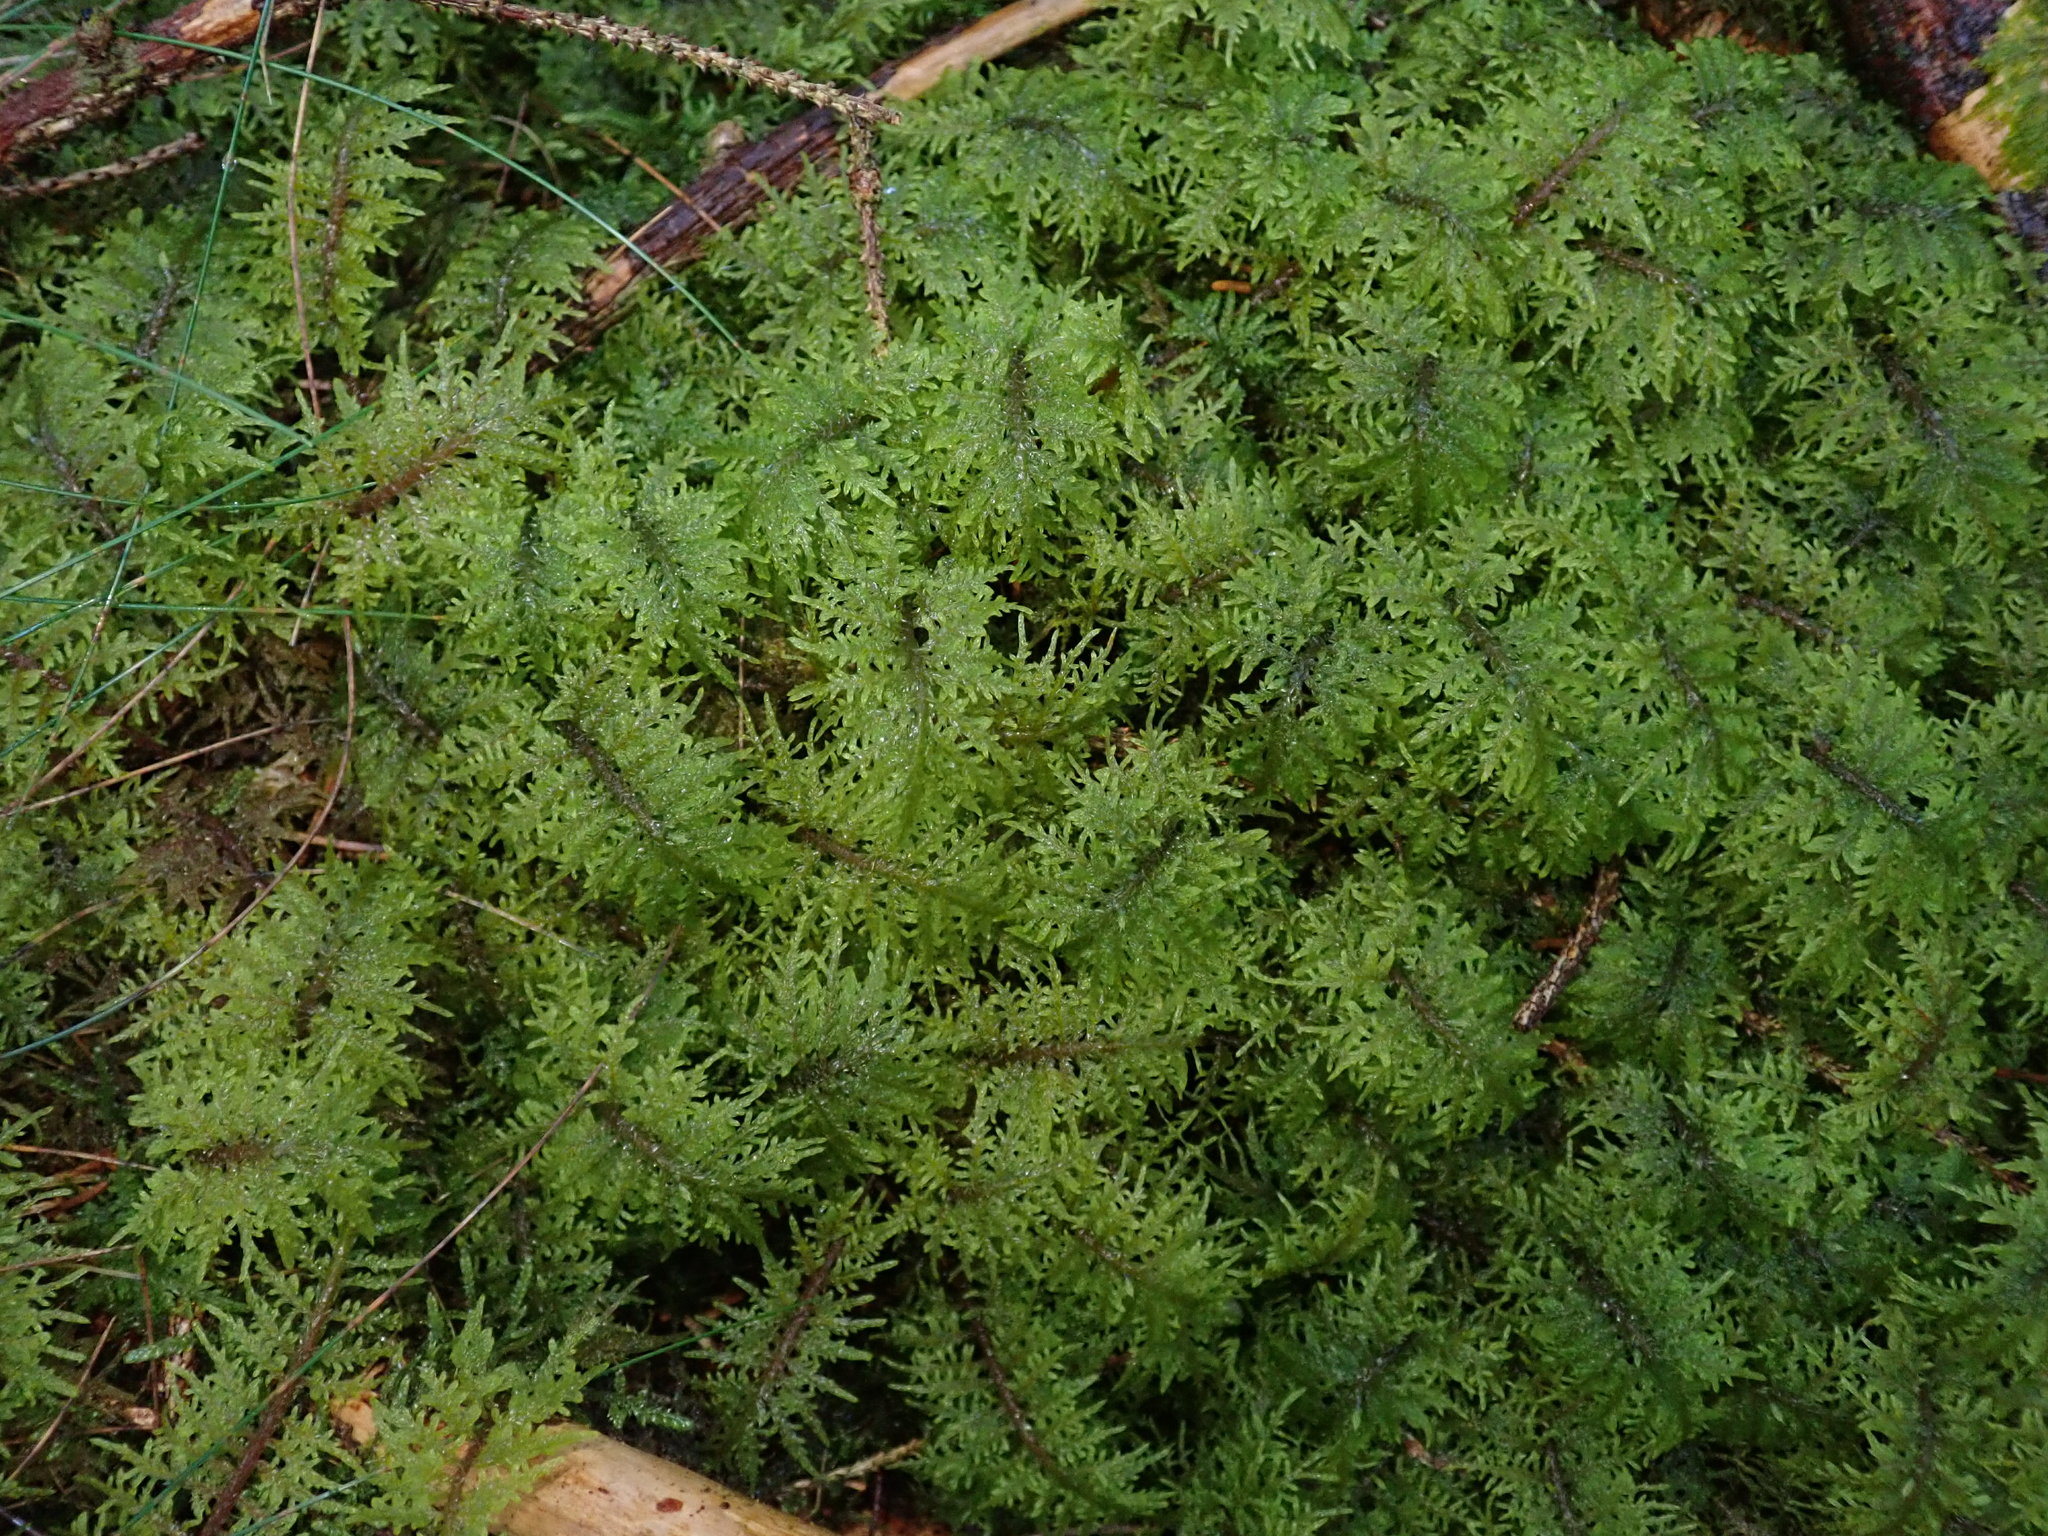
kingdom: Plantae
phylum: Bryophyta
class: Bryopsida
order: Hypnales
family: Hylocomiaceae
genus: Hylocomium
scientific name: Hylocomium splendens
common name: Stairstep moss
